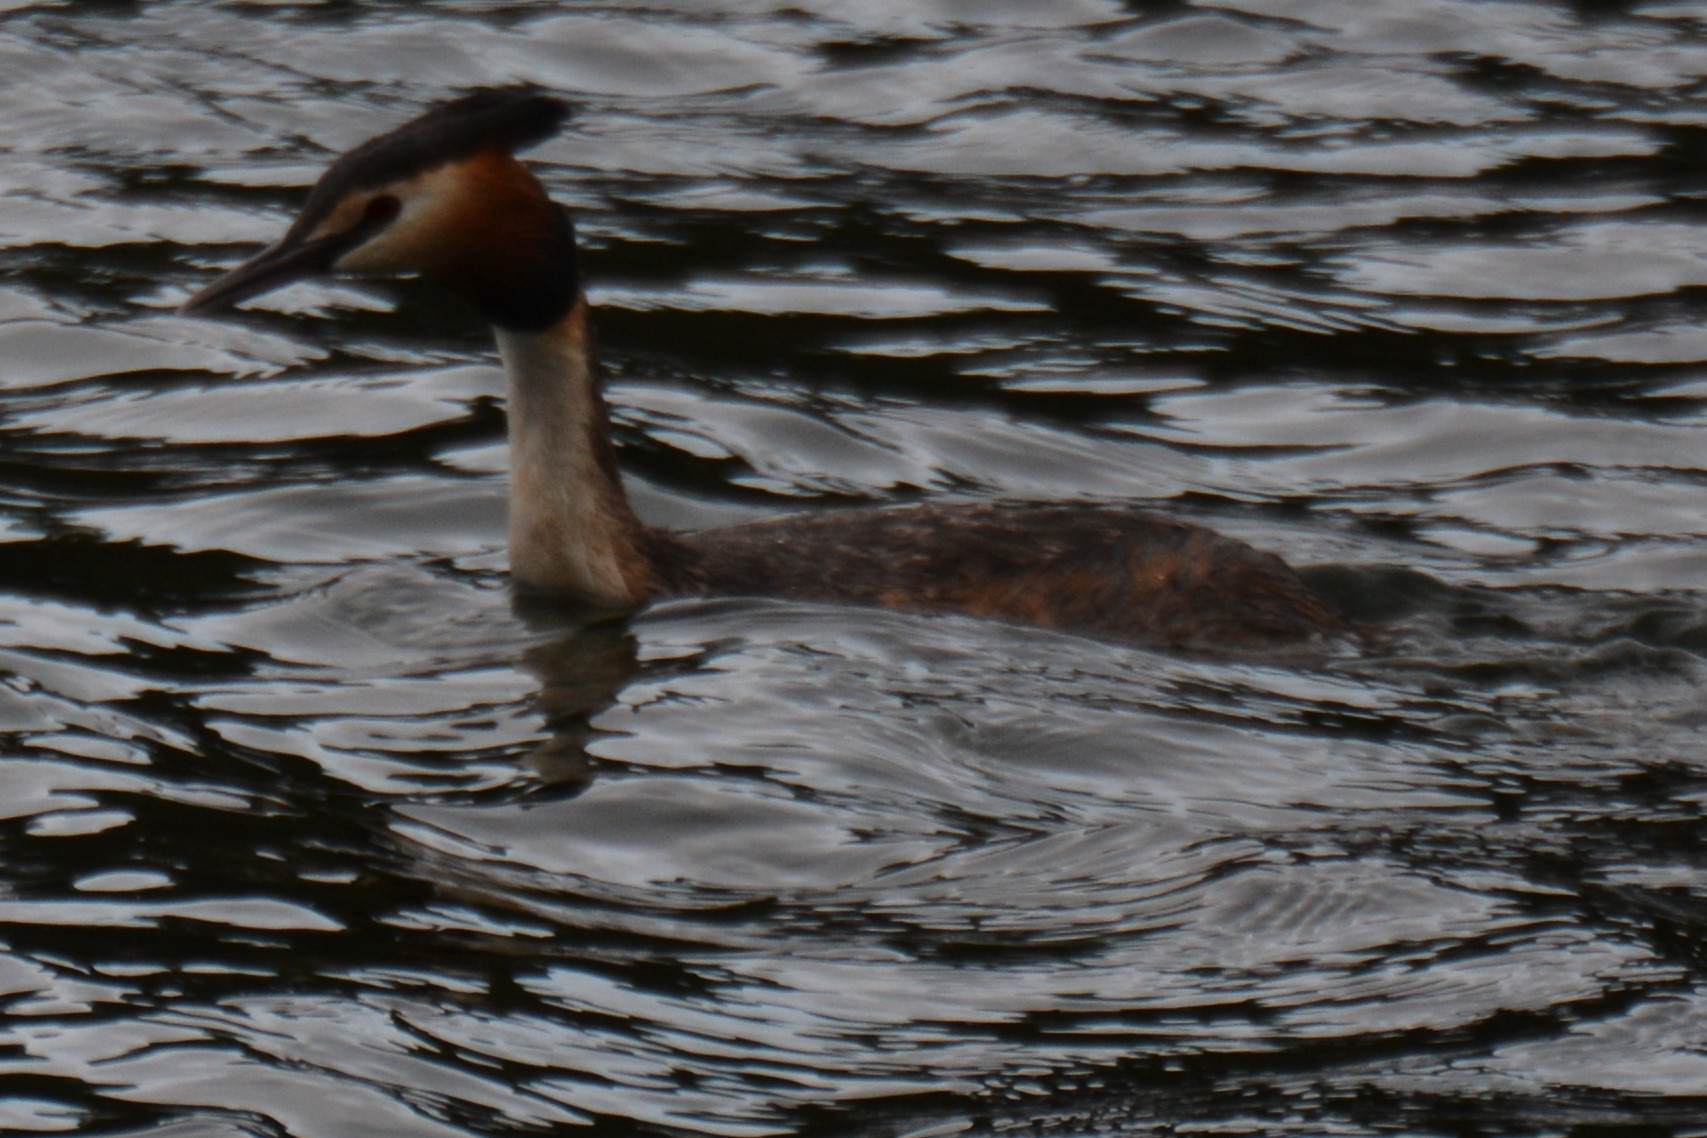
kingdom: Animalia
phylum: Chordata
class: Aves
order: Podicipediformes
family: Podicipedidae
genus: Podiceps
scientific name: Podiceps cristatus
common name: Great crested grebe
